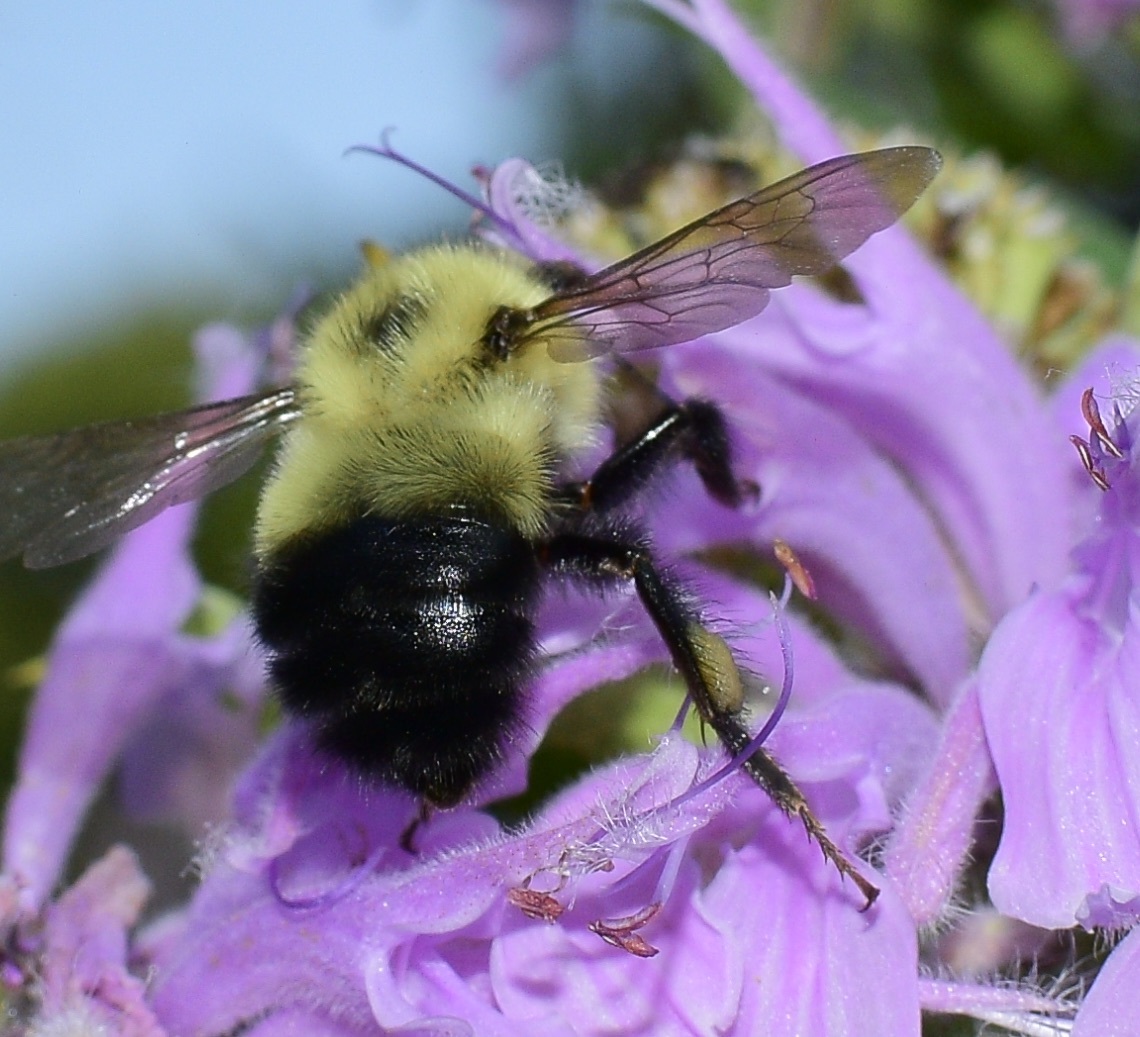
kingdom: Animalia
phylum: Arthropoda
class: Insecta
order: Hymenoptera
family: Apidae
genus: Pyrobombus
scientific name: Pyrobombus
